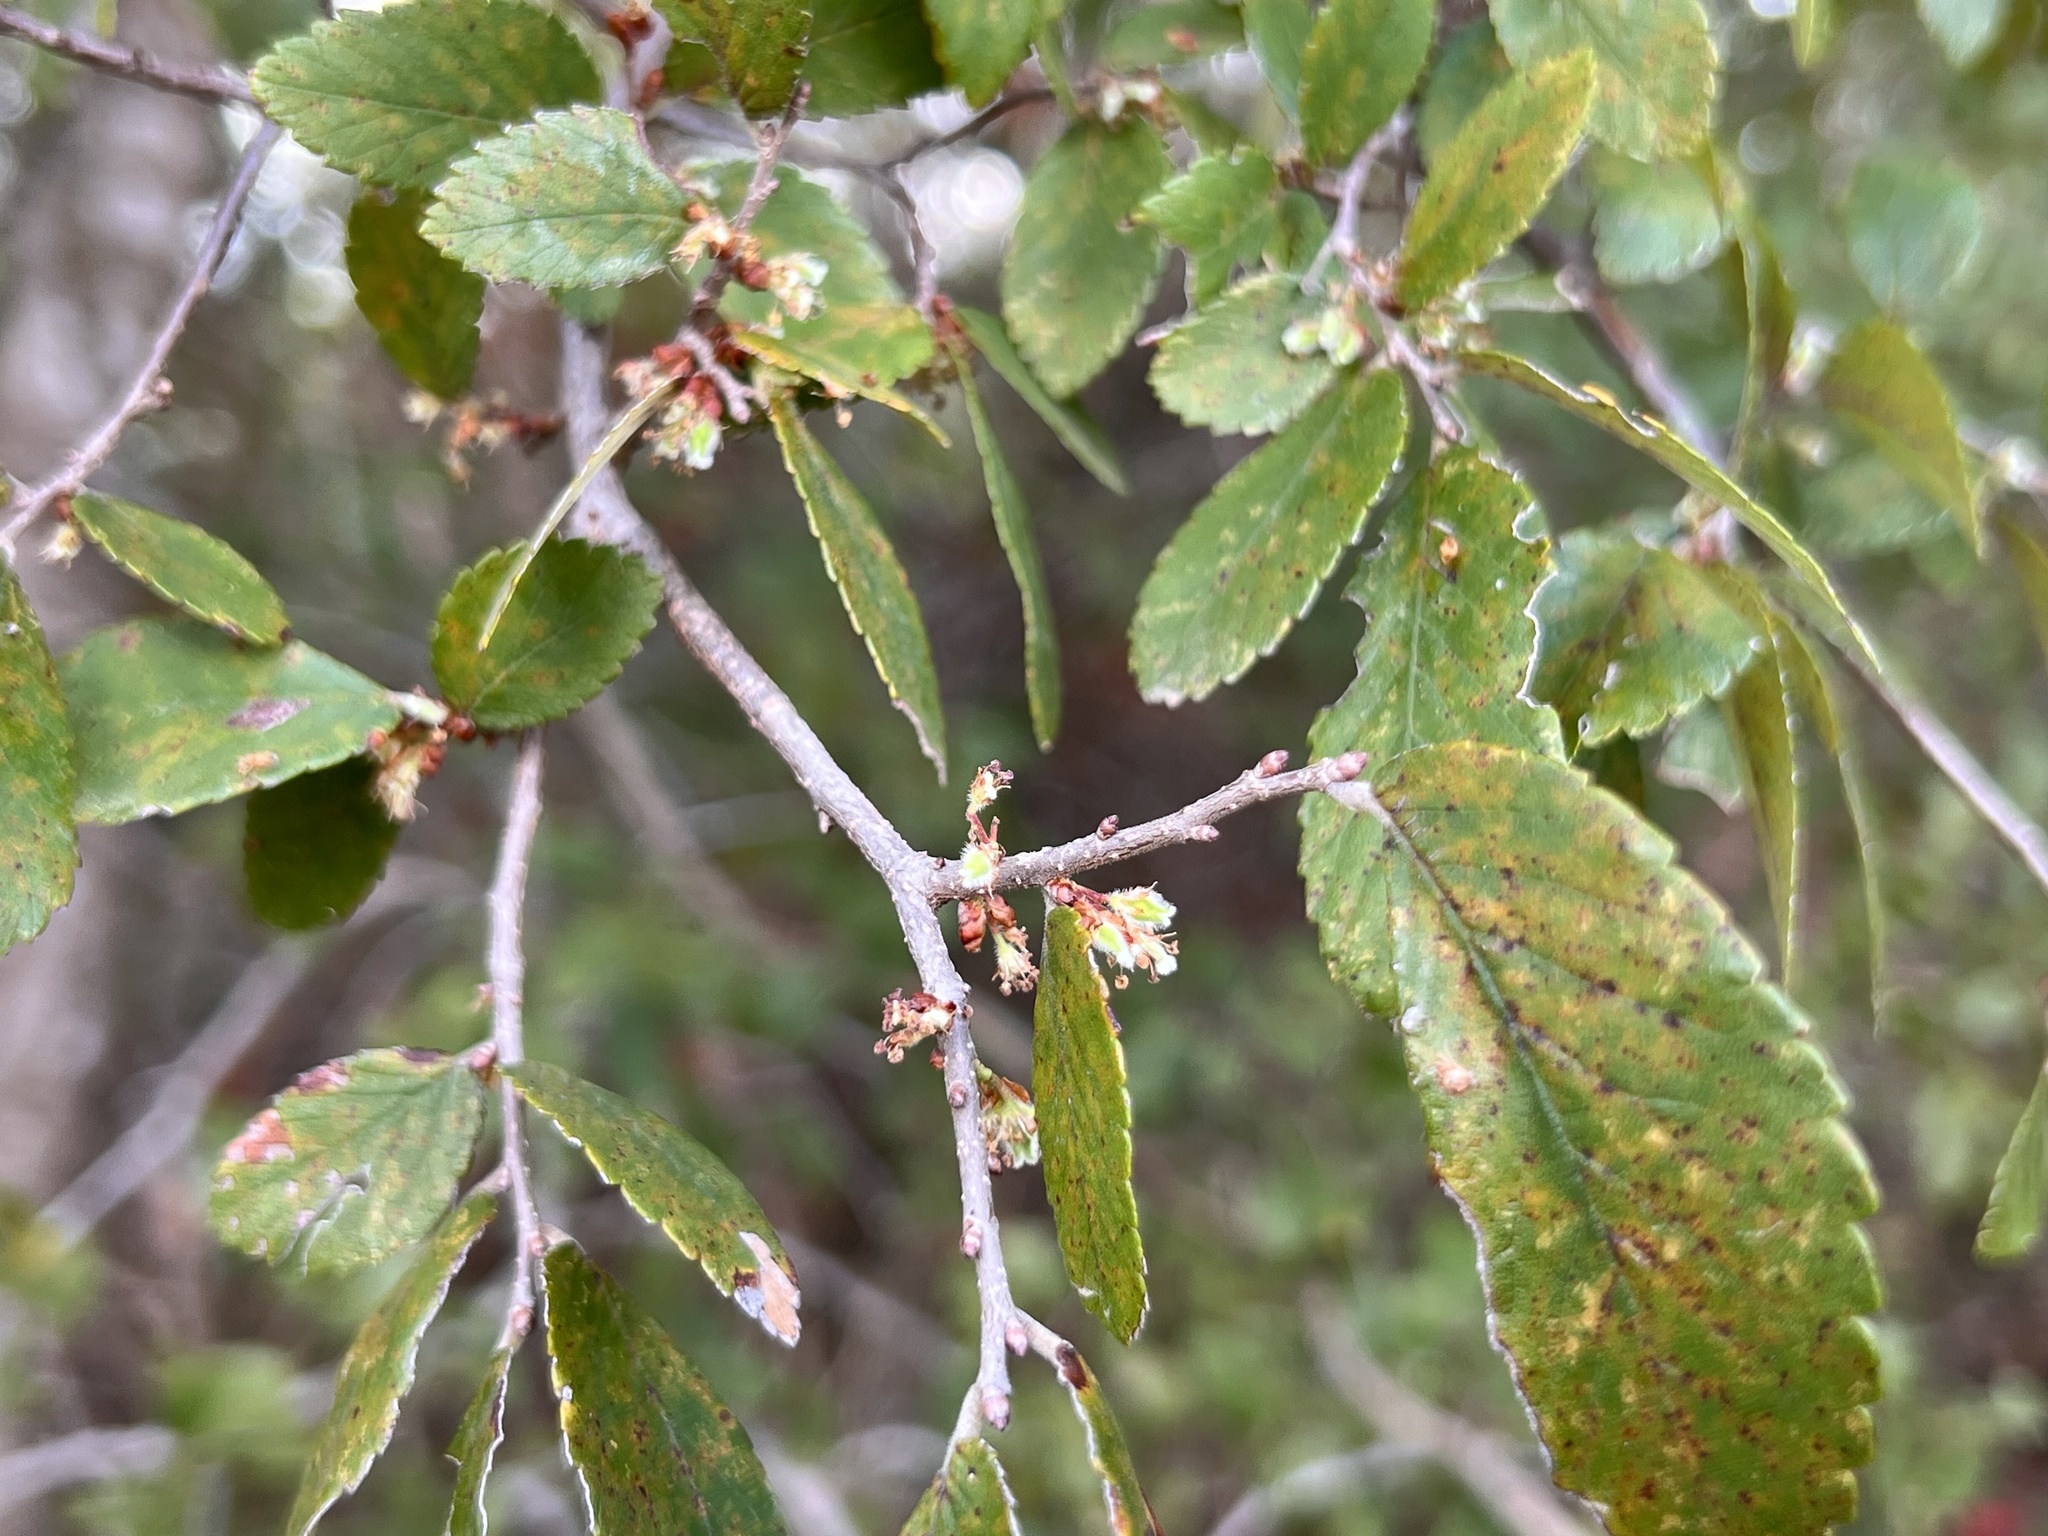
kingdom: Plantae
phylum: Tracheophyta
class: Magnoliopsida
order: Rosales
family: Ulmaceae
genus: Ulmus
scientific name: Ulmus crassifolia
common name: Basket elm
